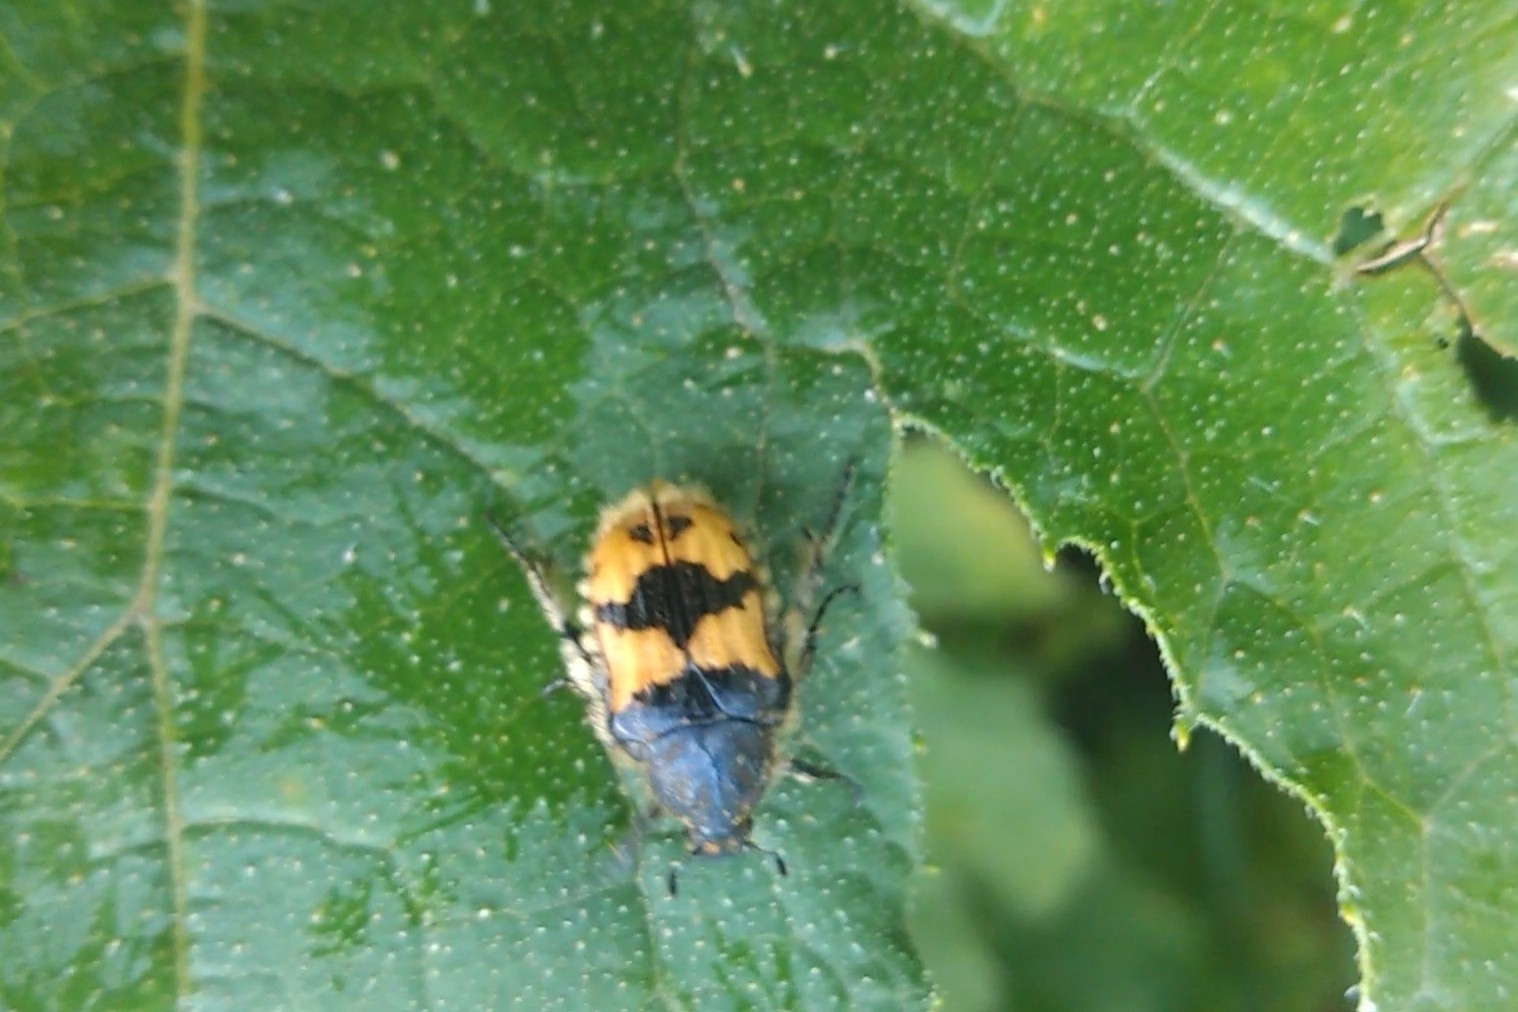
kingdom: Animalia
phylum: Arthropoda
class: Insecta
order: Coleoptera
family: Scarabaeidae
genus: Euphoria
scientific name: Euphoria basalis
